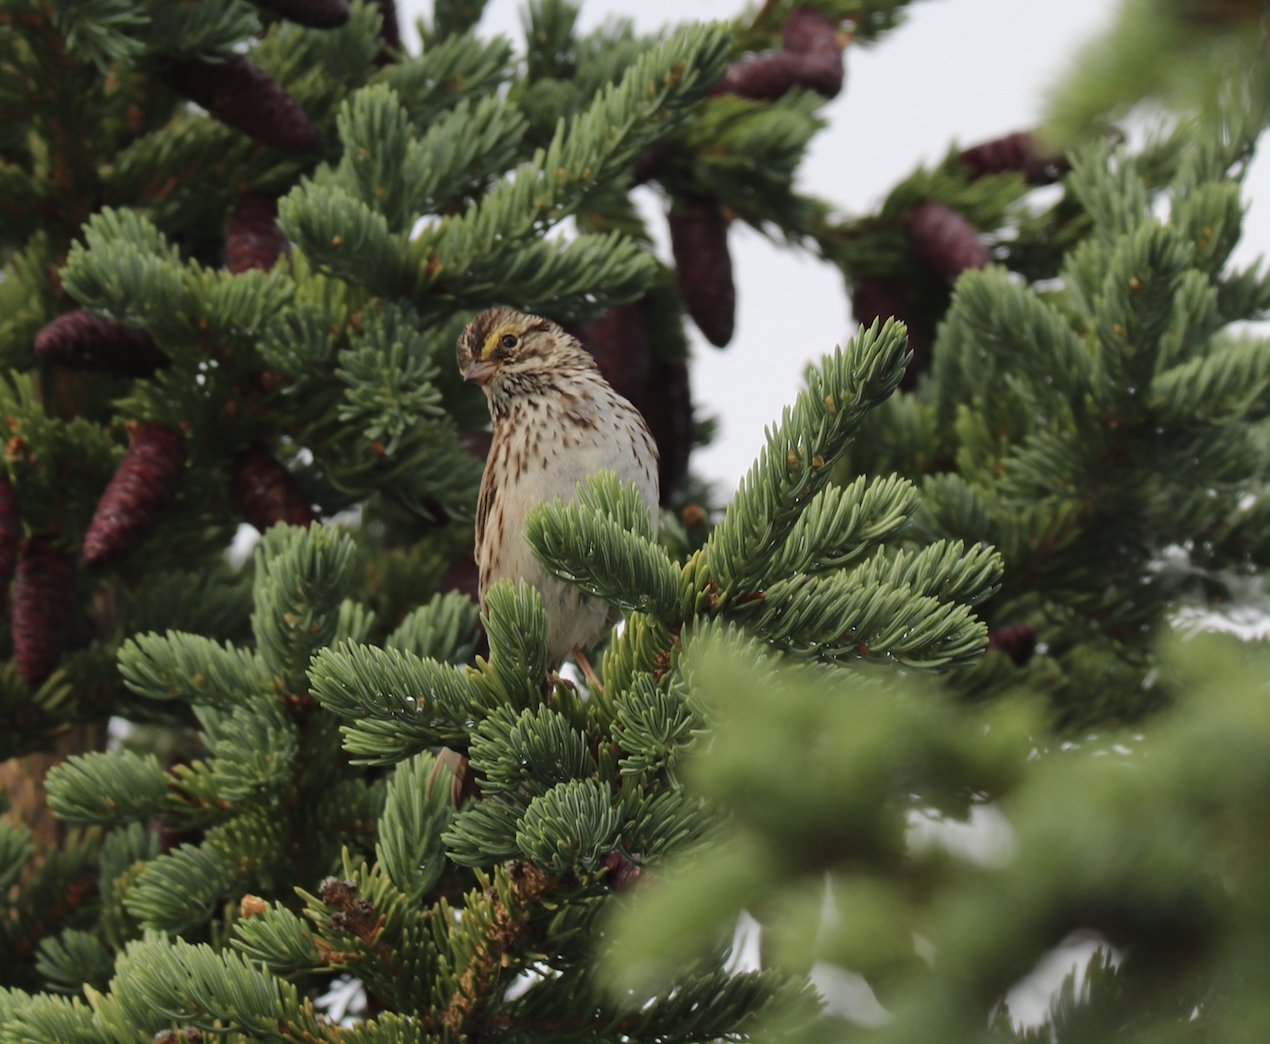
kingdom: Animalia
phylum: Chordata
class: Aves
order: Passeriformes
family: Passerellidae
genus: Passerculus
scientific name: Passerculus sandwichensis
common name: Savannah sparrow
